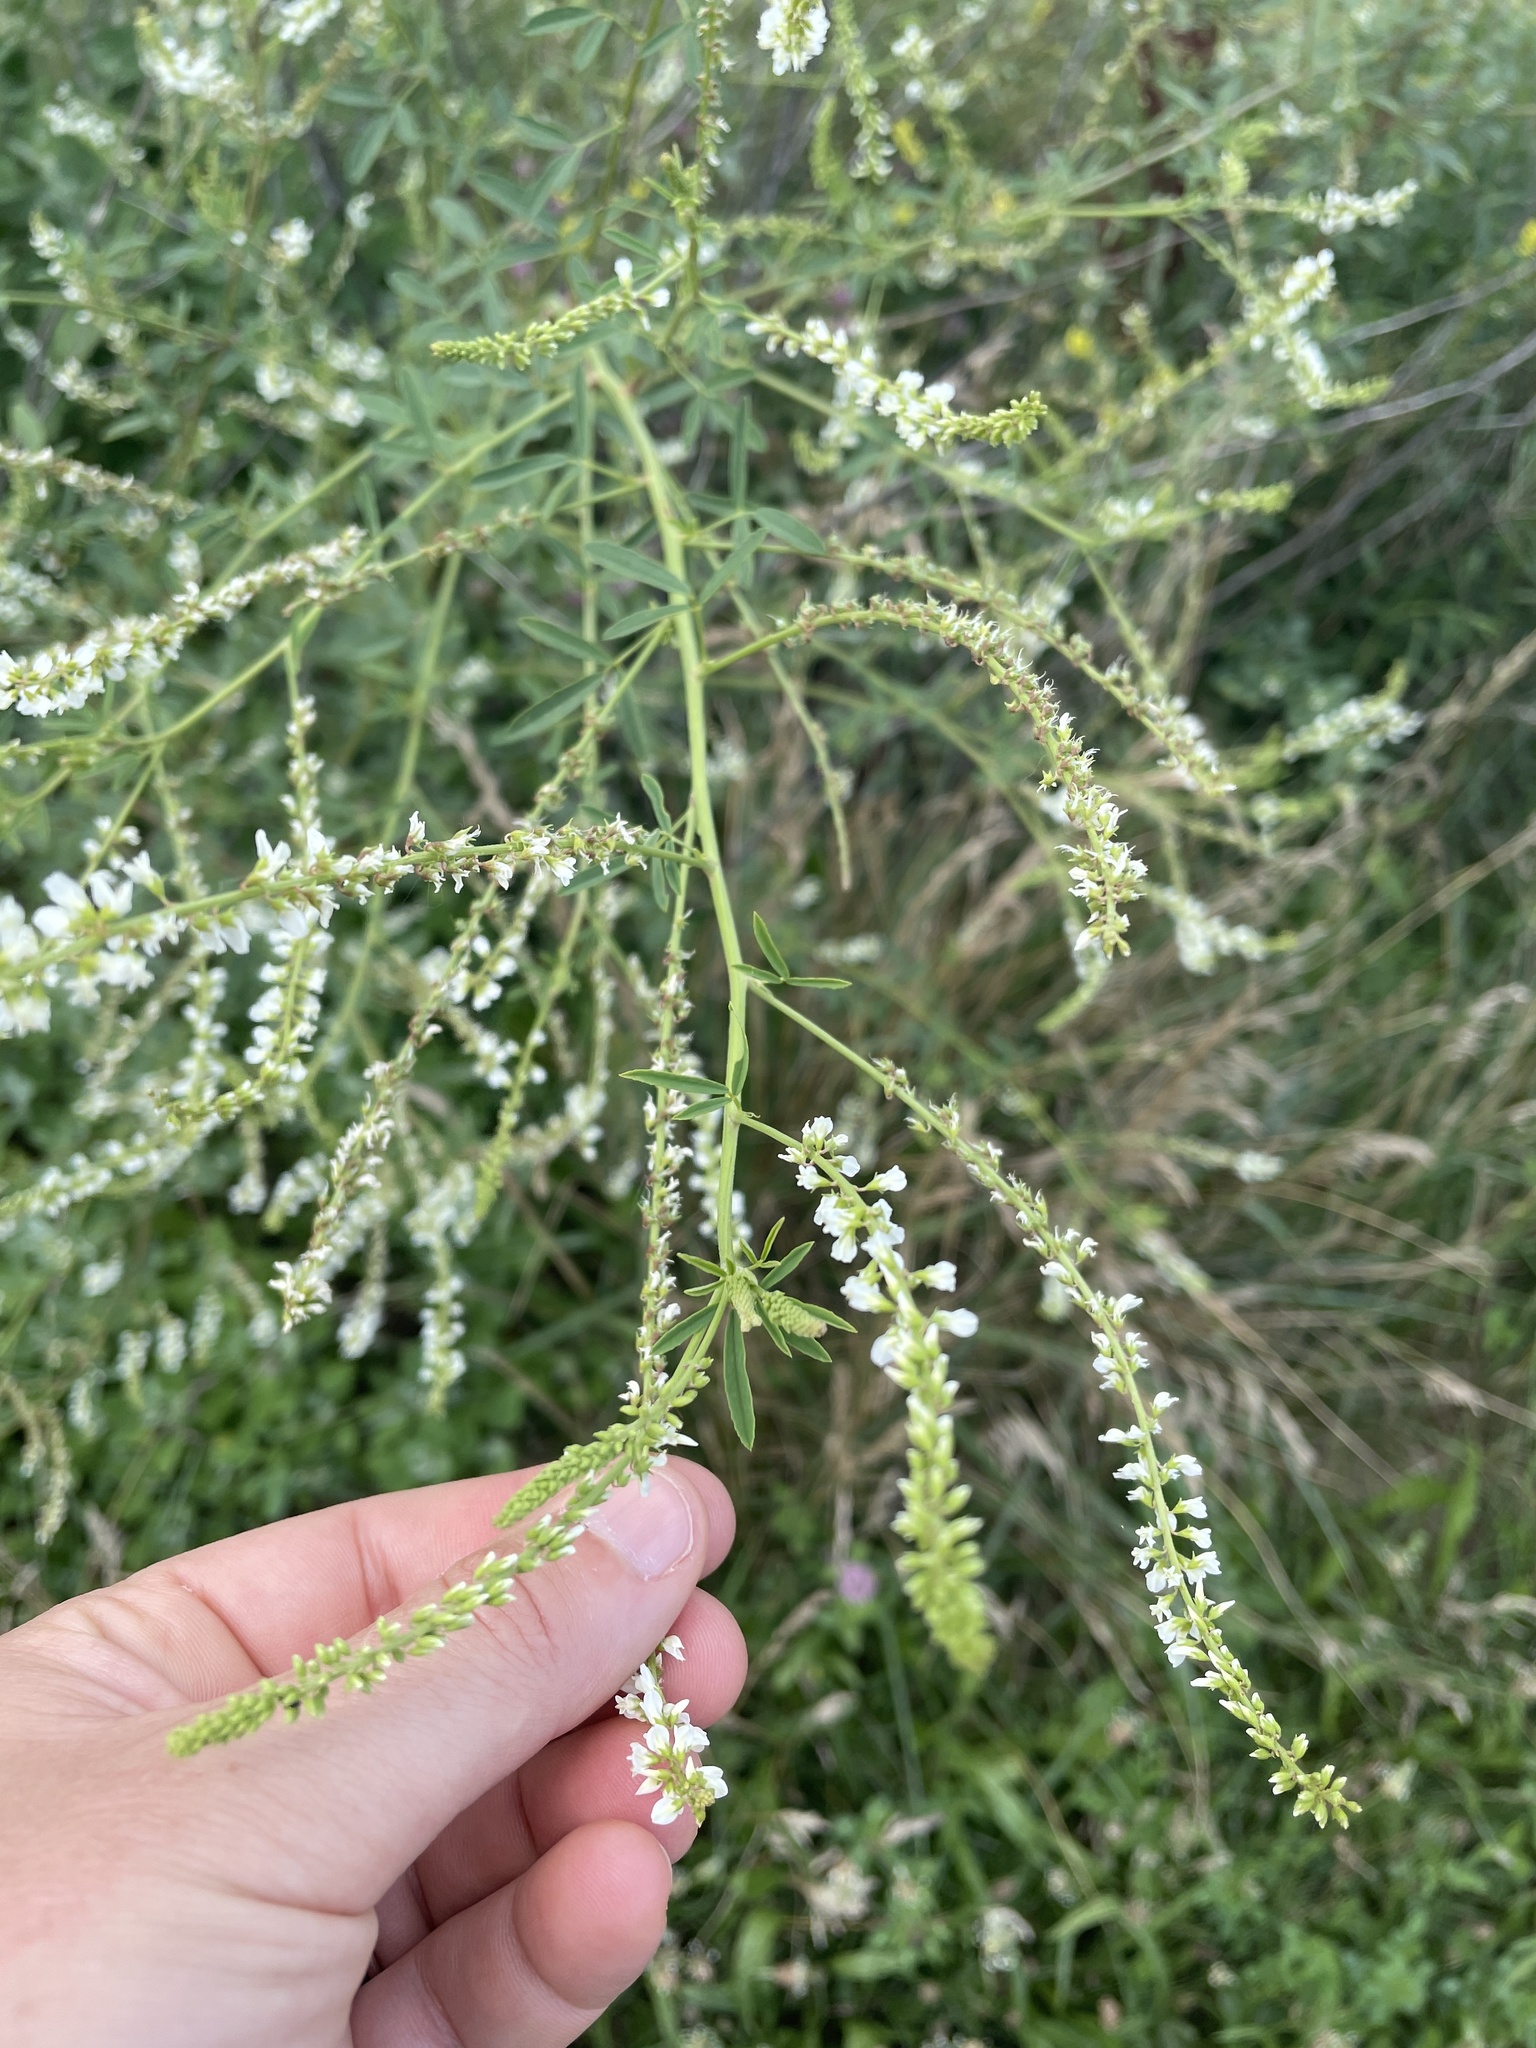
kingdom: Plantae
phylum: Tracheophyta
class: Magnoliopsida
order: Fabales
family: Fabaceae
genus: Melilotus
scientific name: Melilotus albus
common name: White melilot
